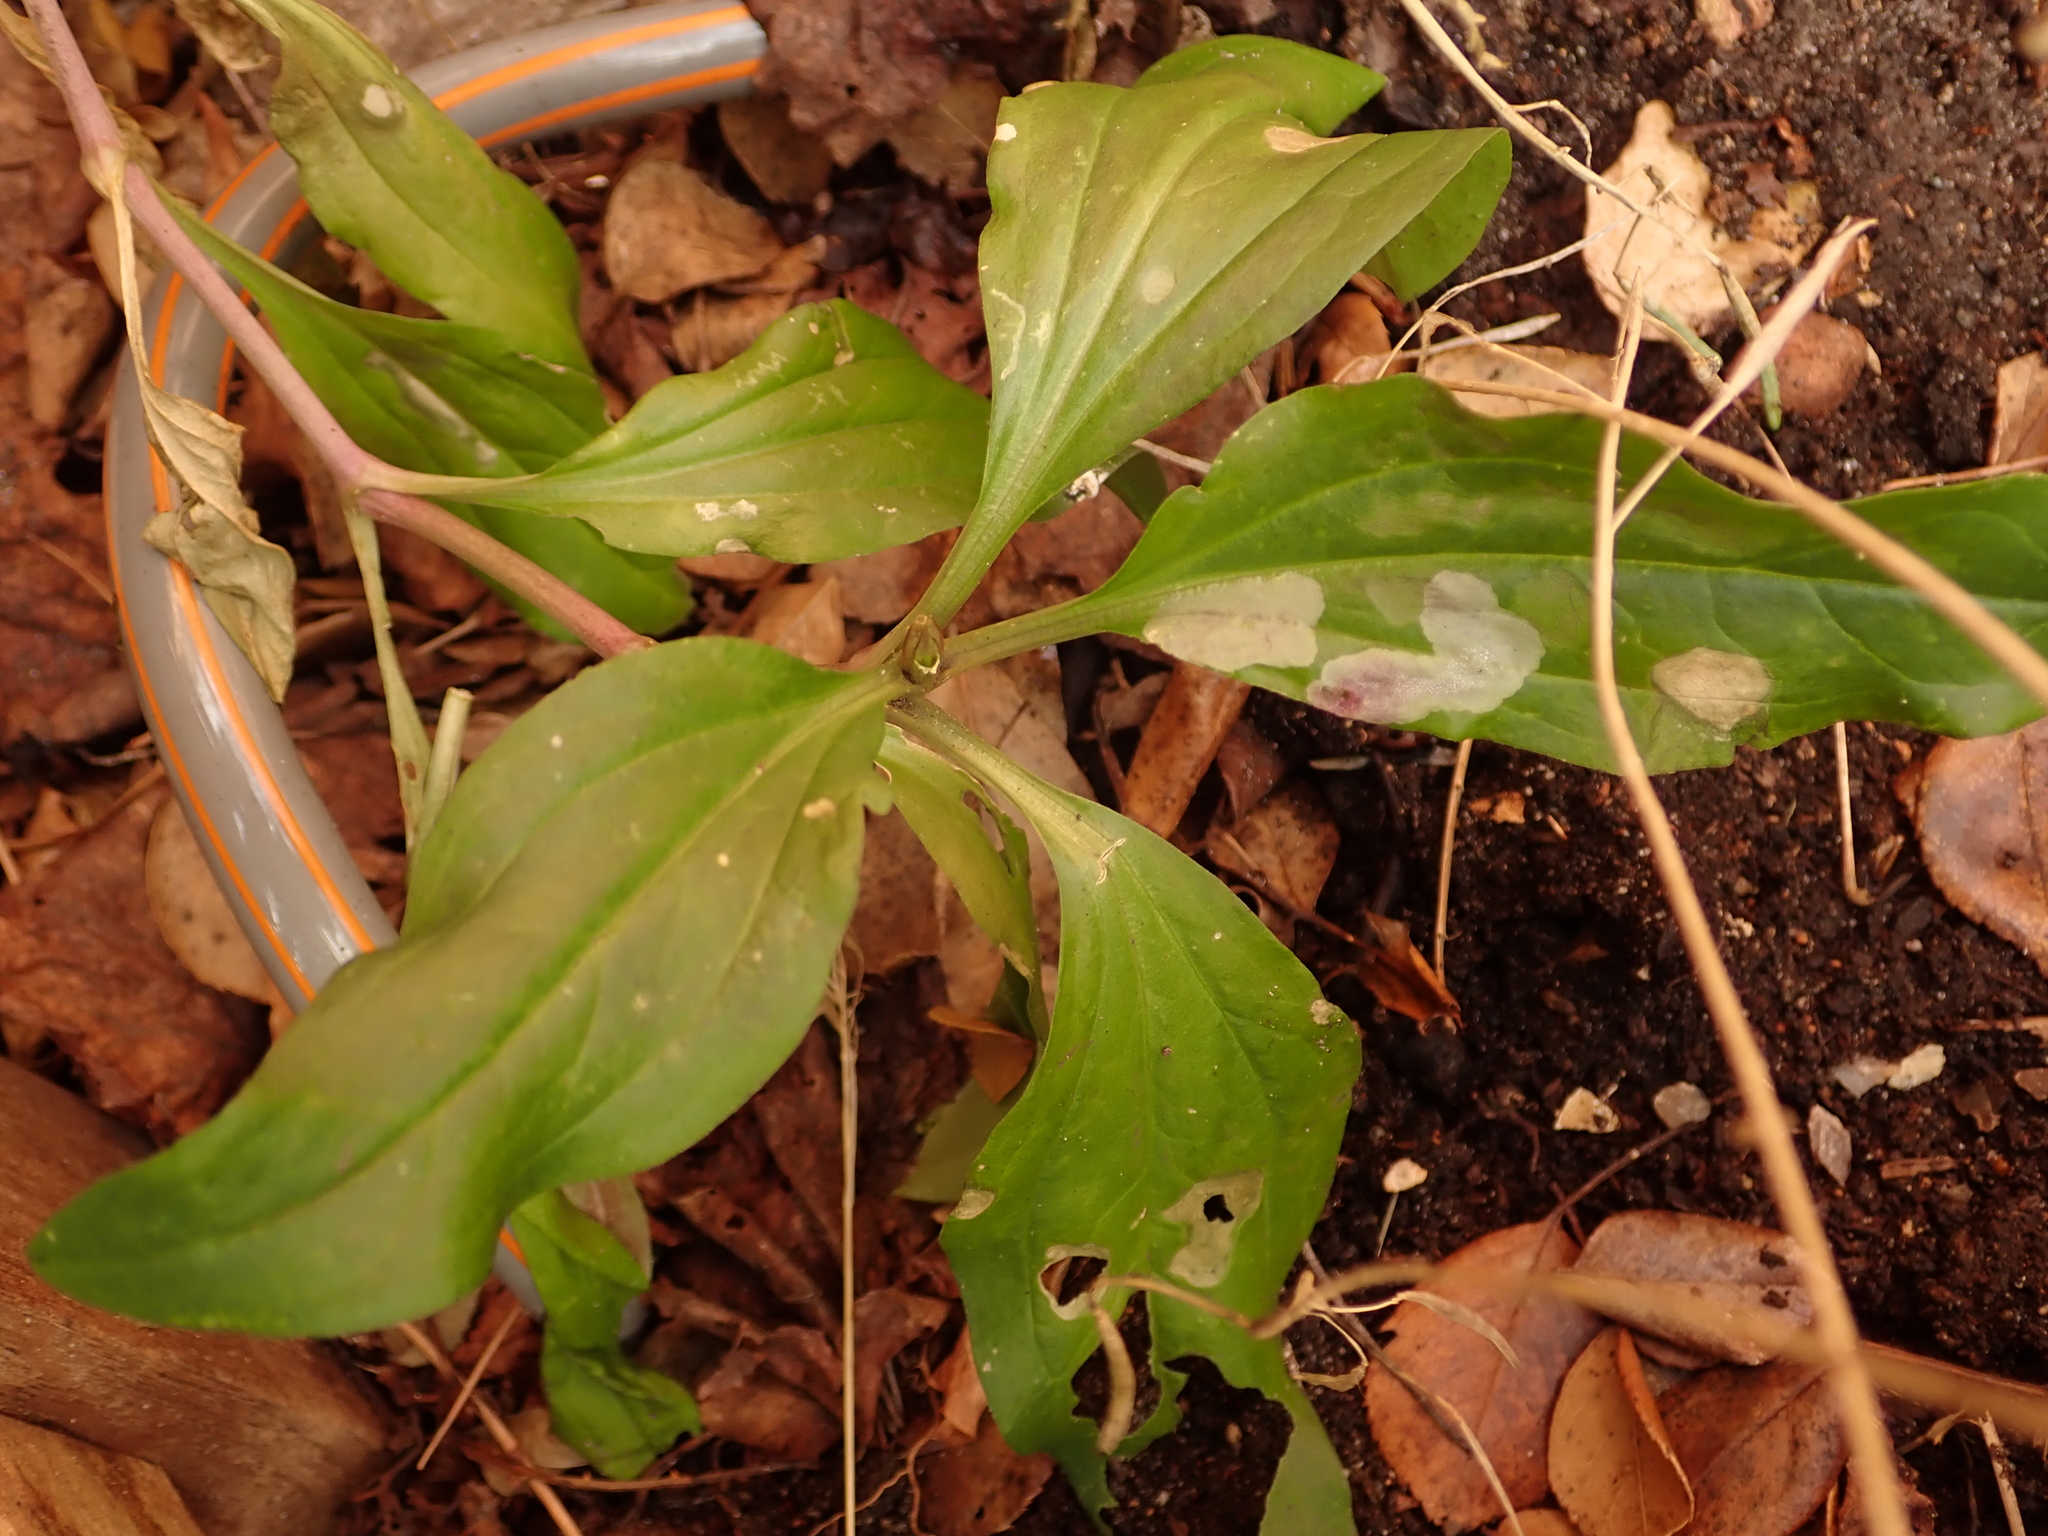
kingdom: Plantae
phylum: Tracheophyta
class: Magnoliopsida
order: Caryophyllales
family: Caryophyllaceae
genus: Saponaria
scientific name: Saponaria officinalis
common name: Soapwort
